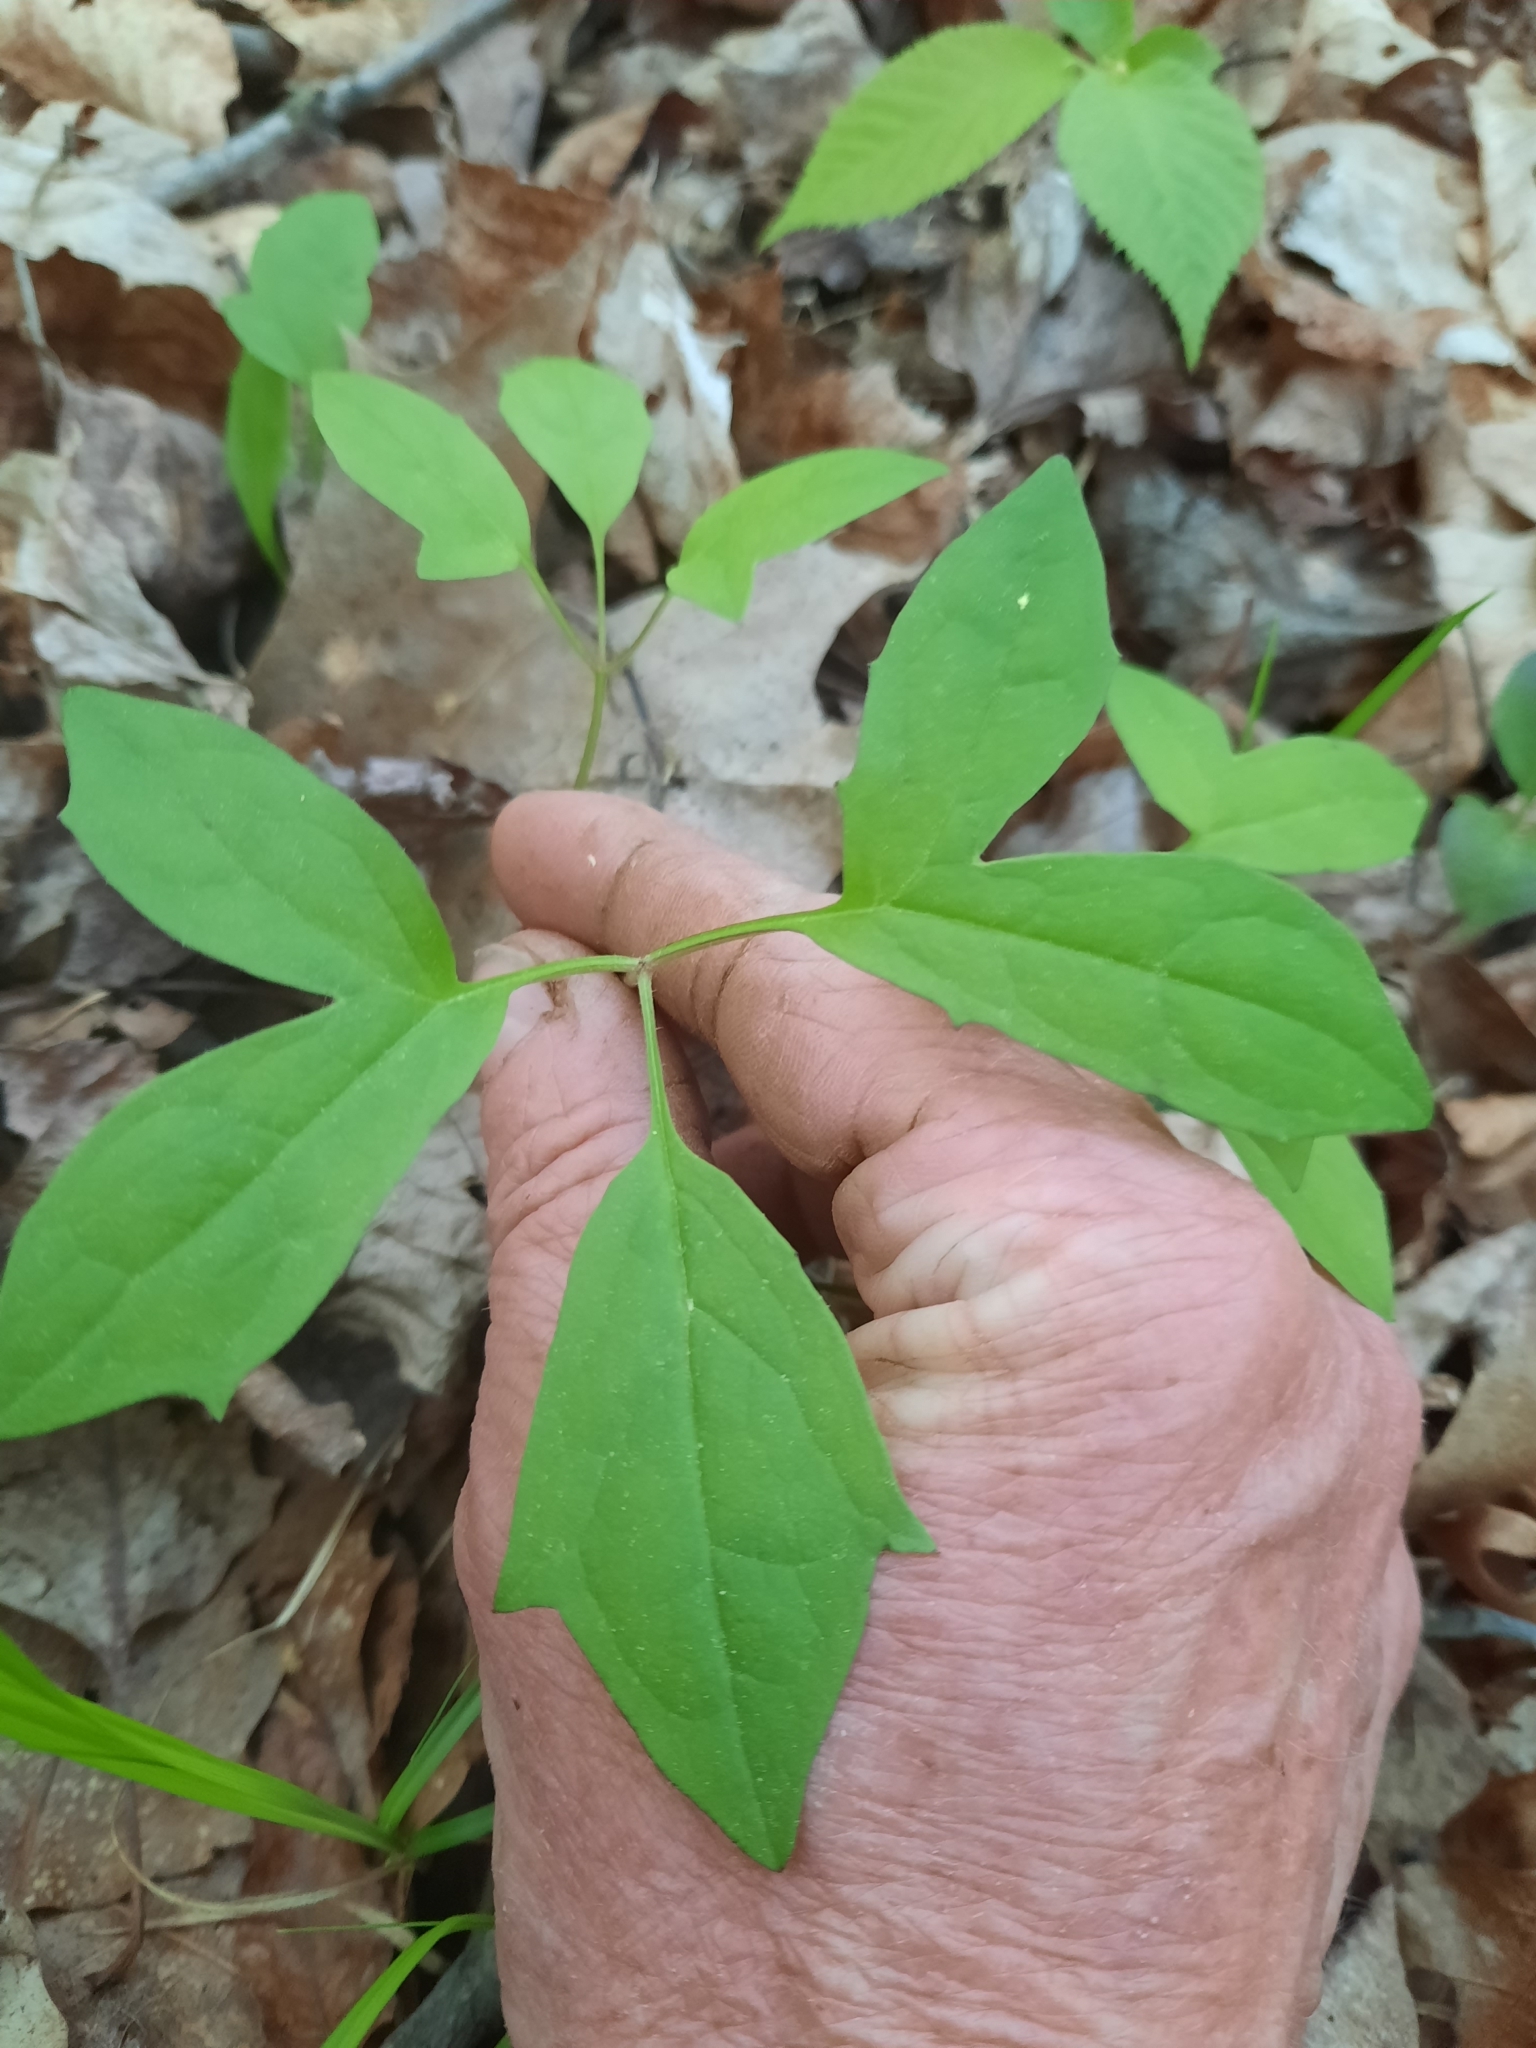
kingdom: Plantae
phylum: Tracheophyta
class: Magnoliopsida
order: Asterales
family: Asteraceae
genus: Nabalus
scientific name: Nabalus trifoliolatus
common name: Gall-of-the-earth
